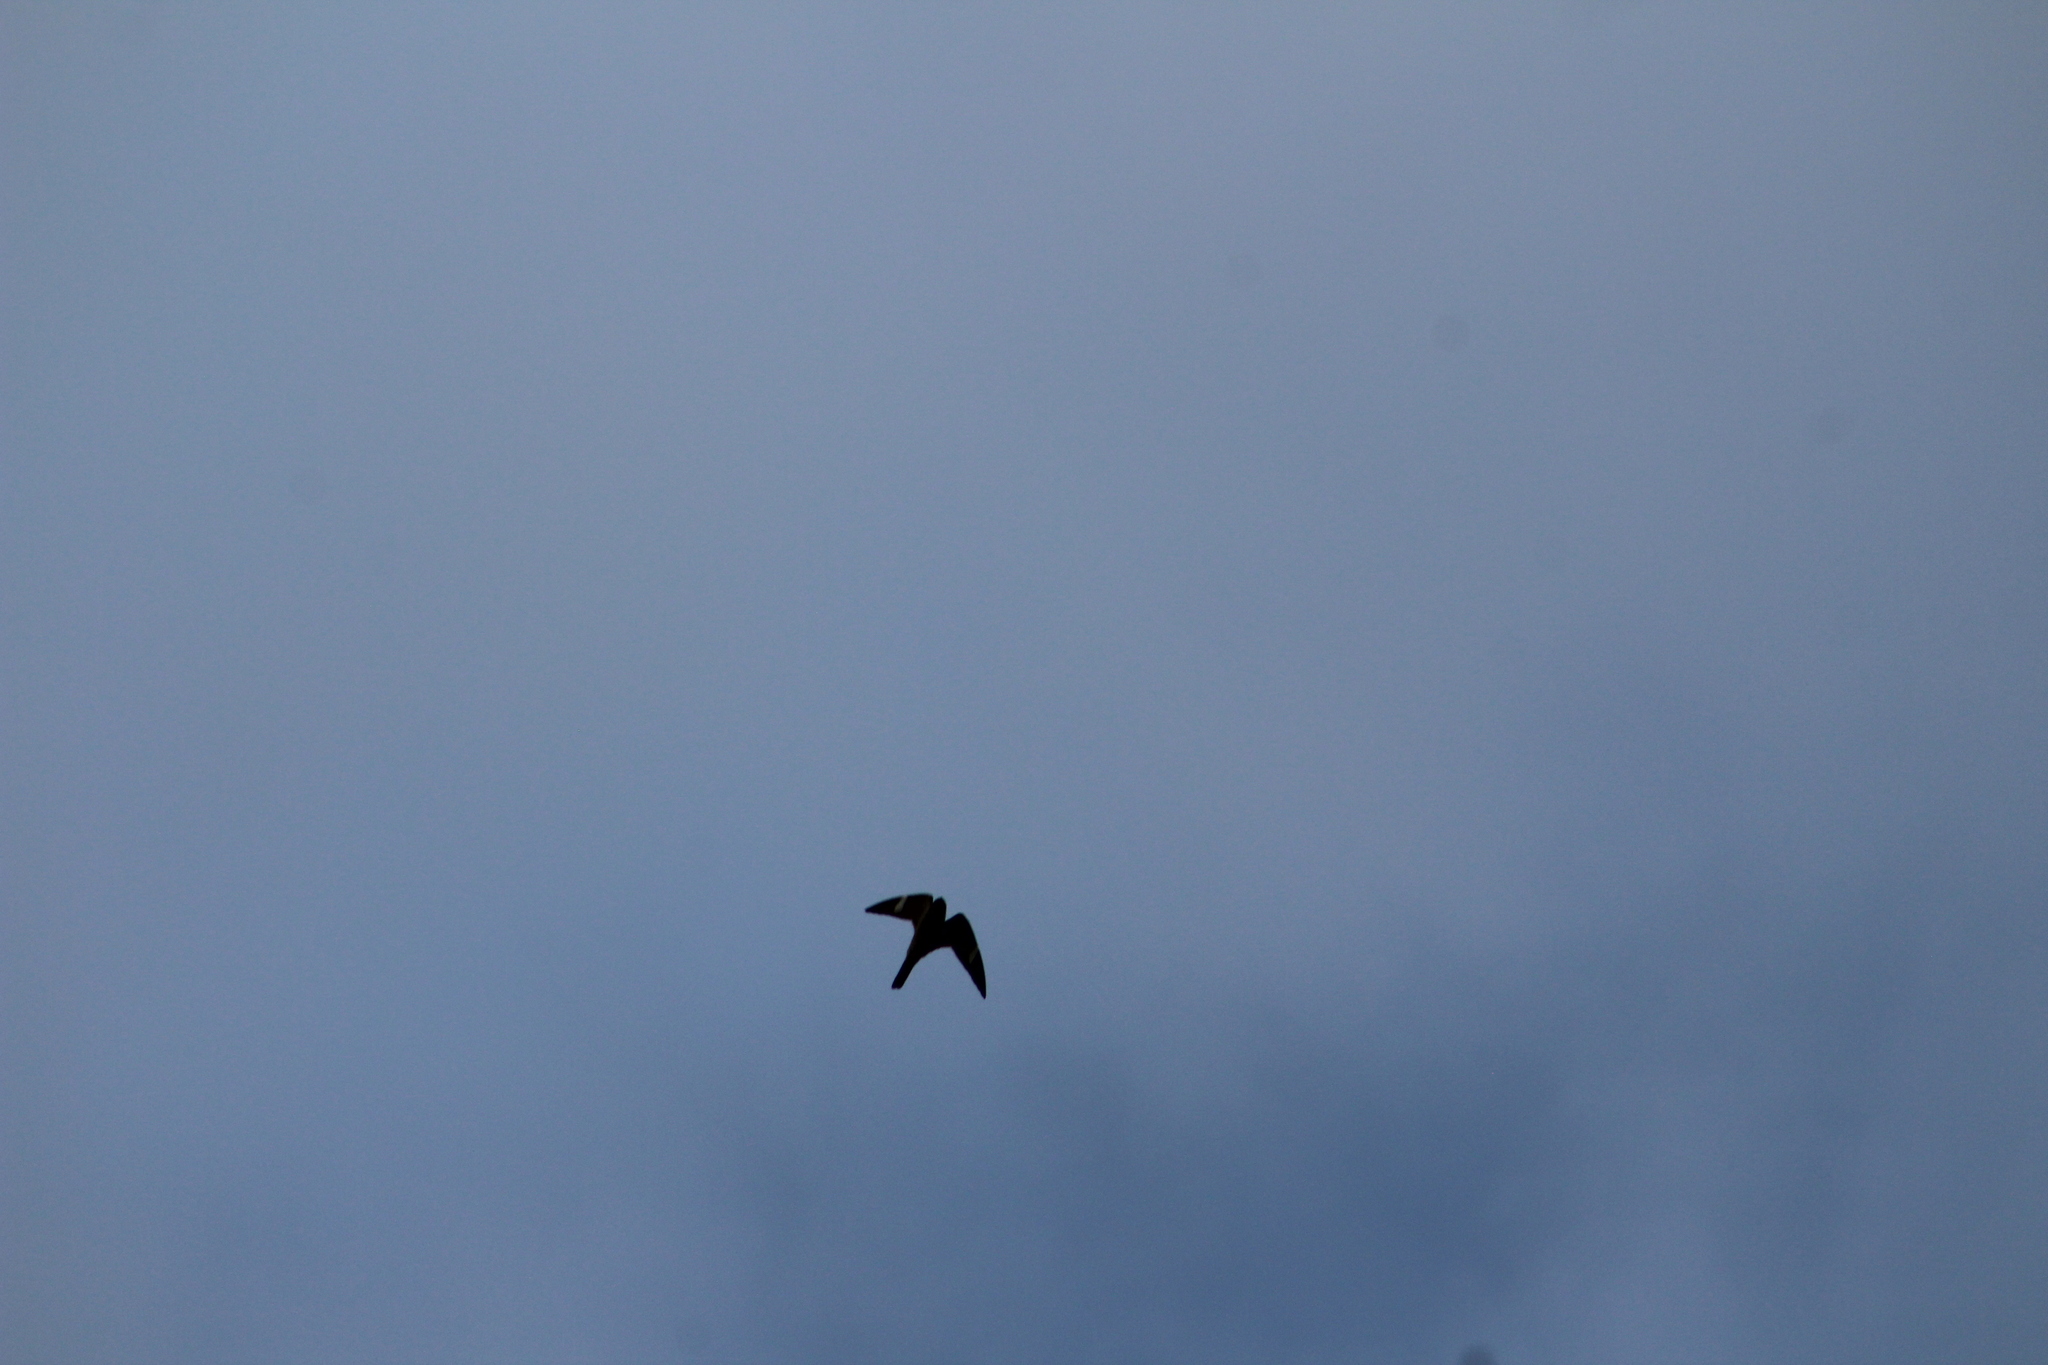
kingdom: Animalia
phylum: Chordata
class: Aves
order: Caprimulgiformes
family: Caprimulgidae
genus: Chordeiles
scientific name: Chordeiles minor
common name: Common nighthawk
